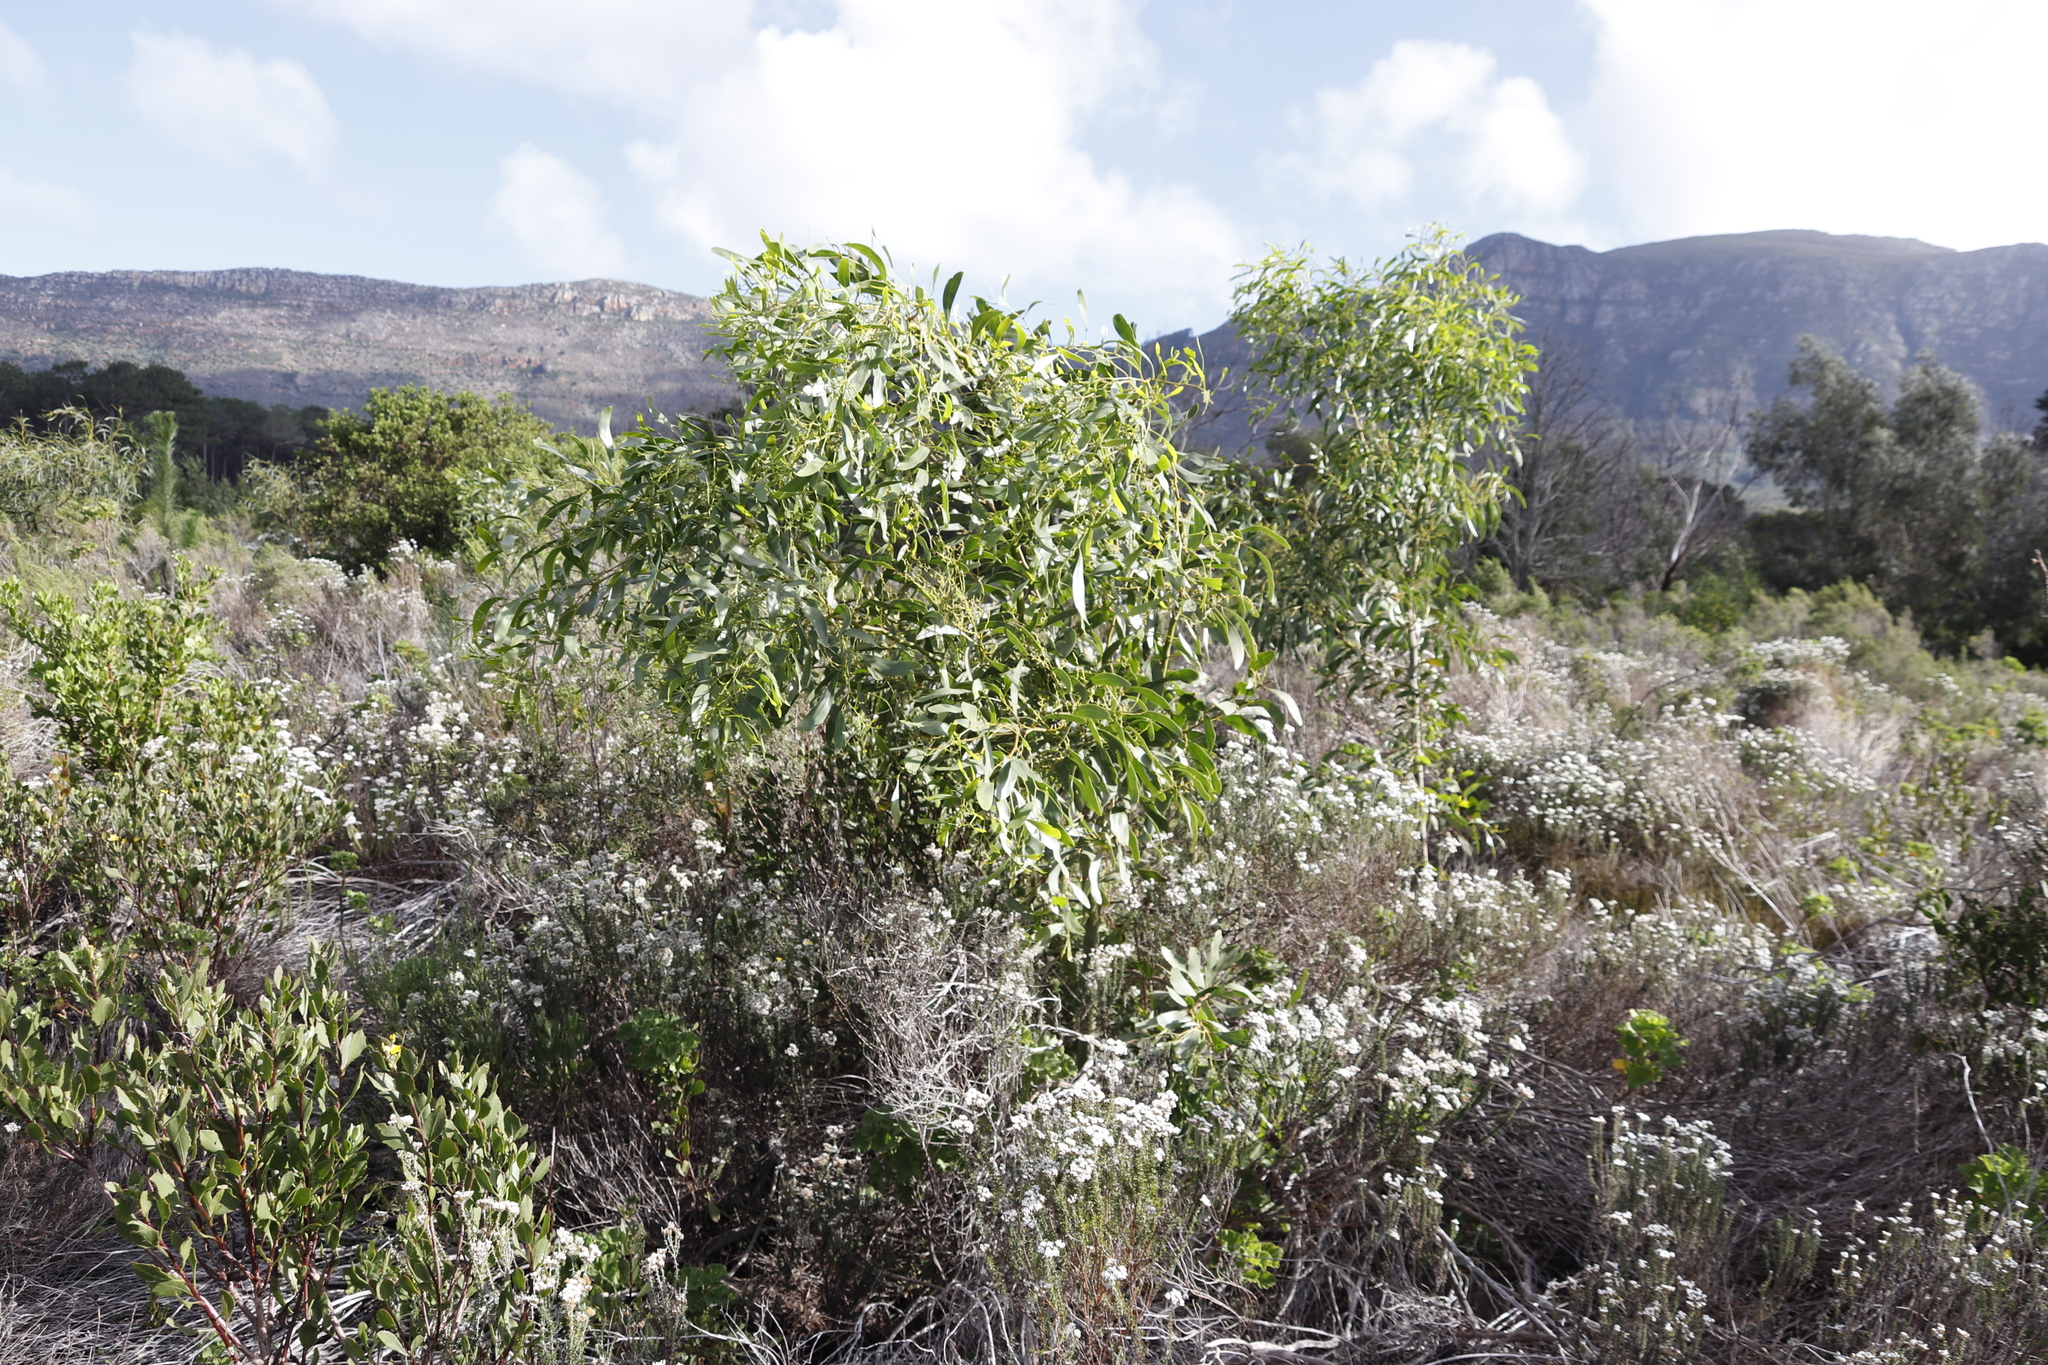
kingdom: Plantae
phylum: Tracheophyta
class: Magnoliopsida
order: Fabales
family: Fabaceae
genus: Acacia
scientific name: Acacia pycnantha
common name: Golden wattle
